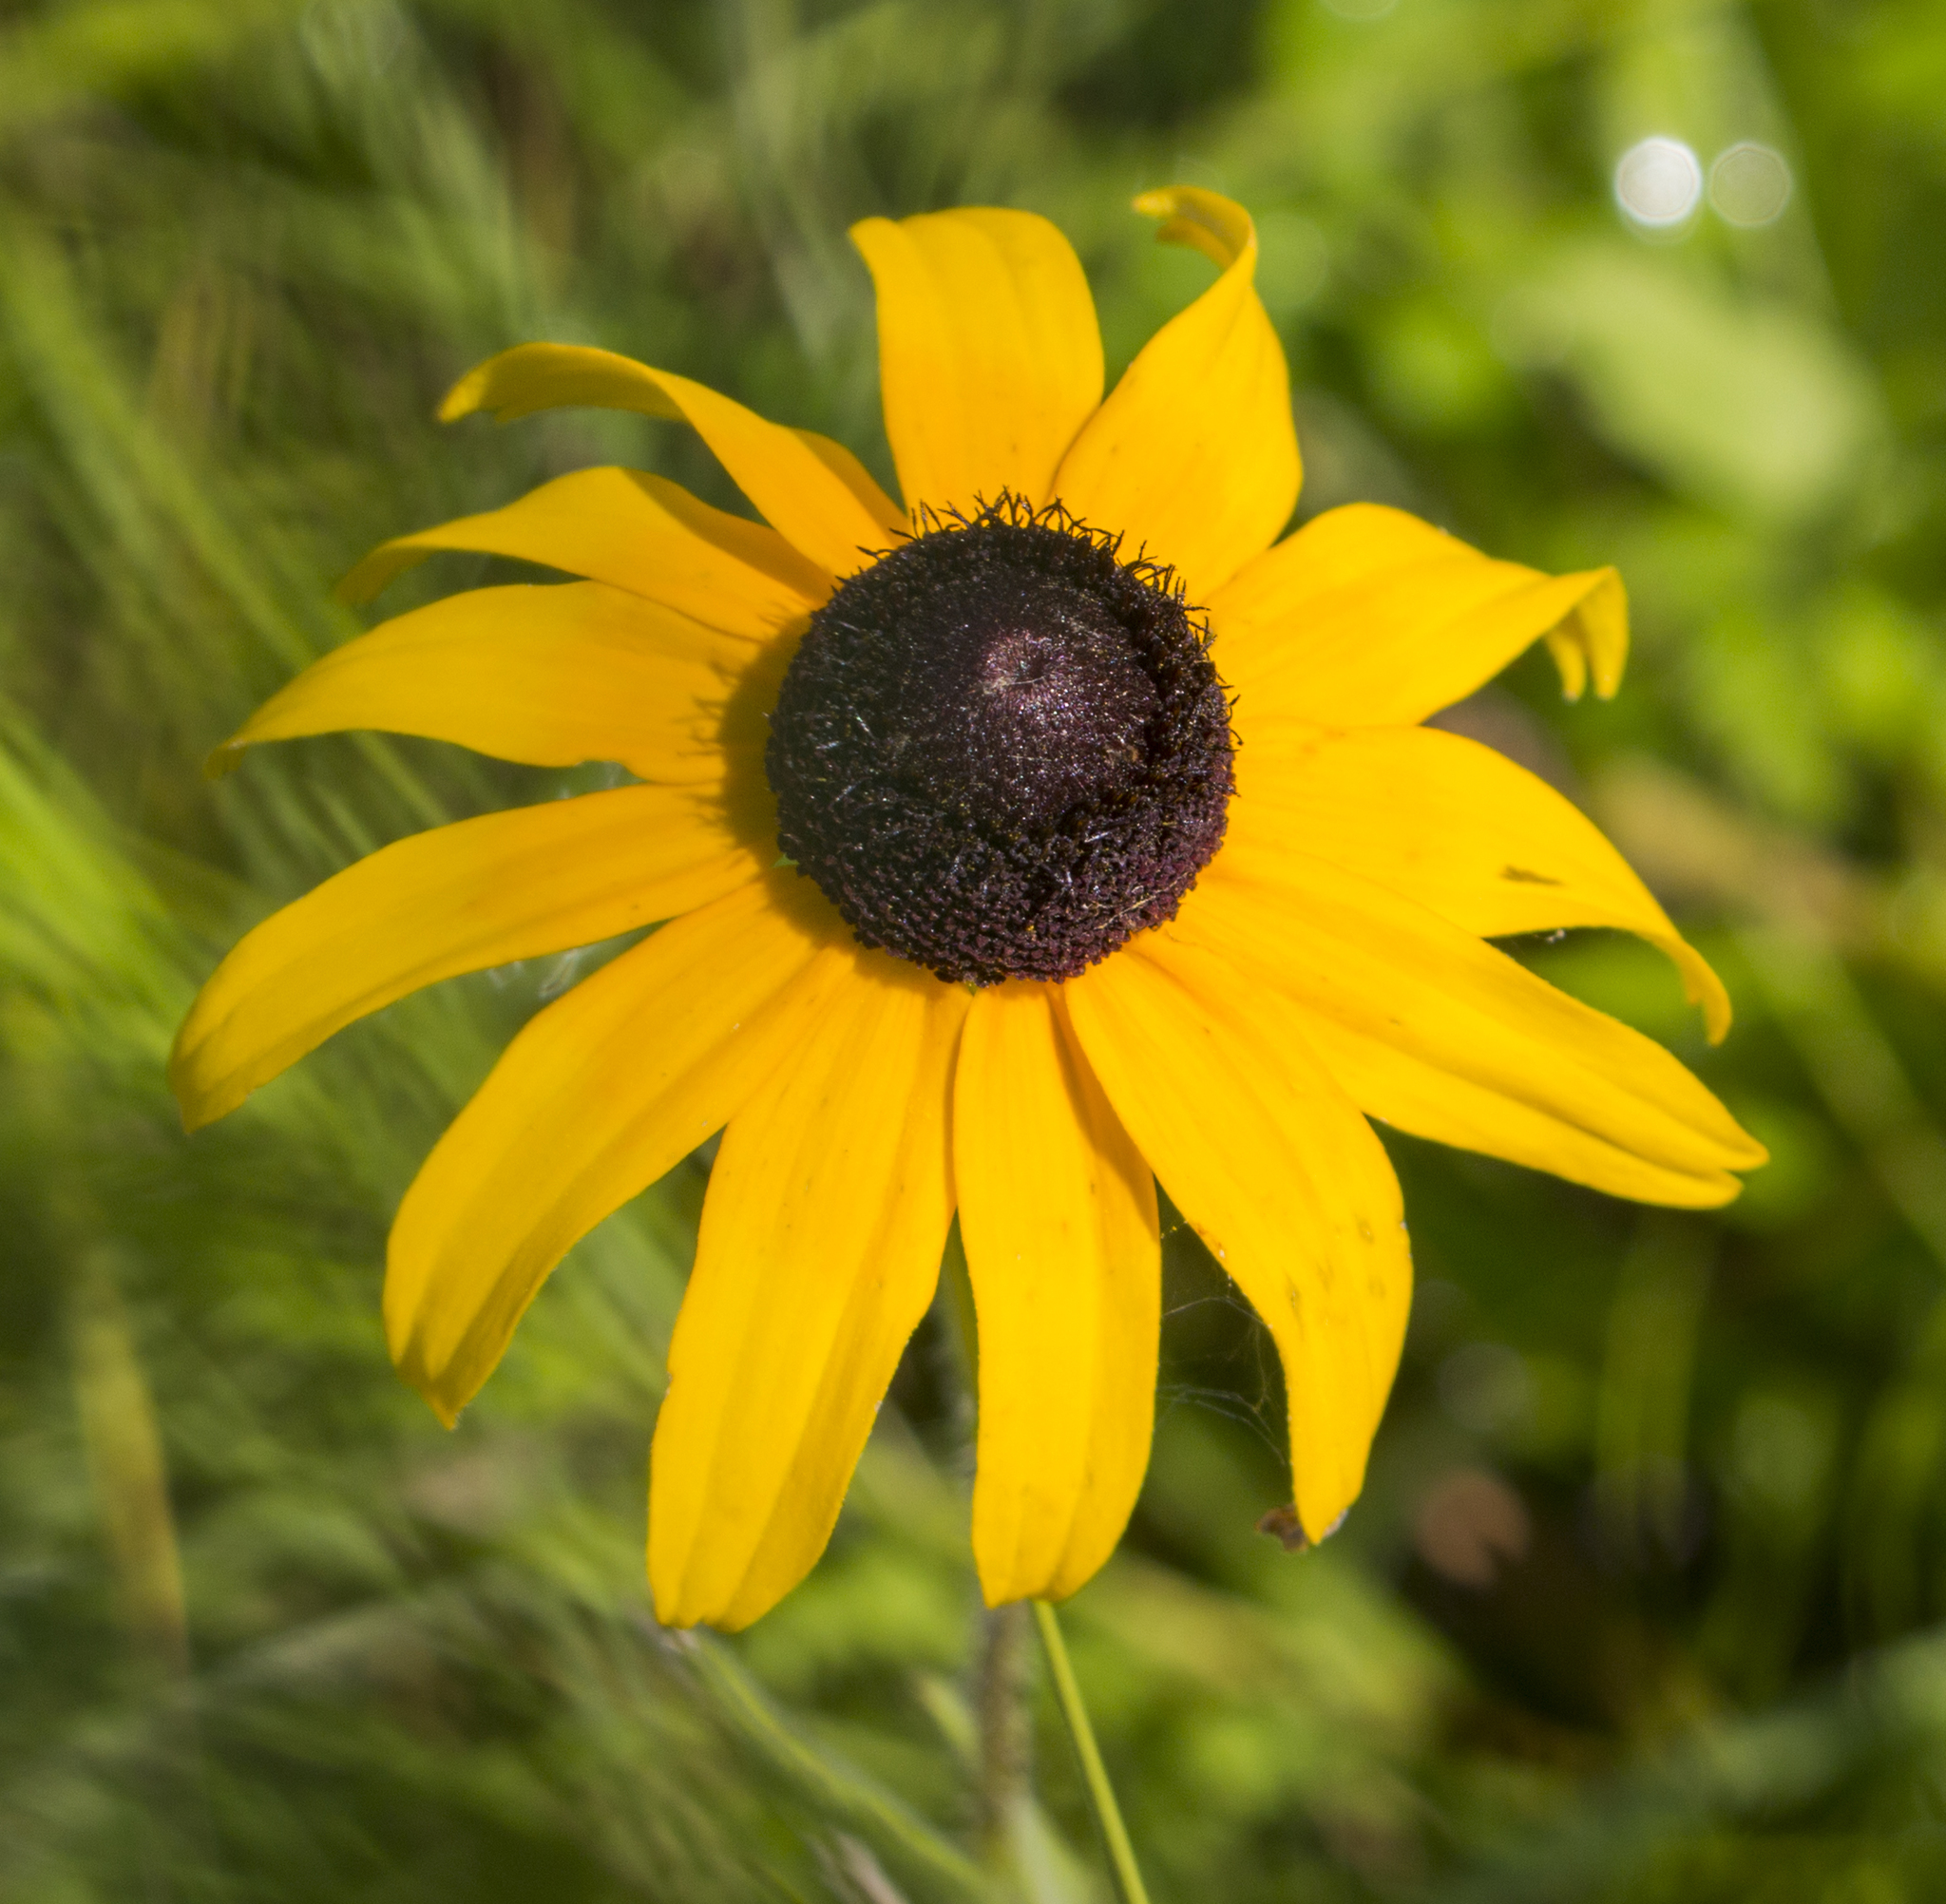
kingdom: Plantae
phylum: Tracheophyta
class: Magnoliopsida
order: Asterales
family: Asteraceae
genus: Rudbeckia
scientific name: Rudbeckia hirta
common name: Black-eyed-susan
